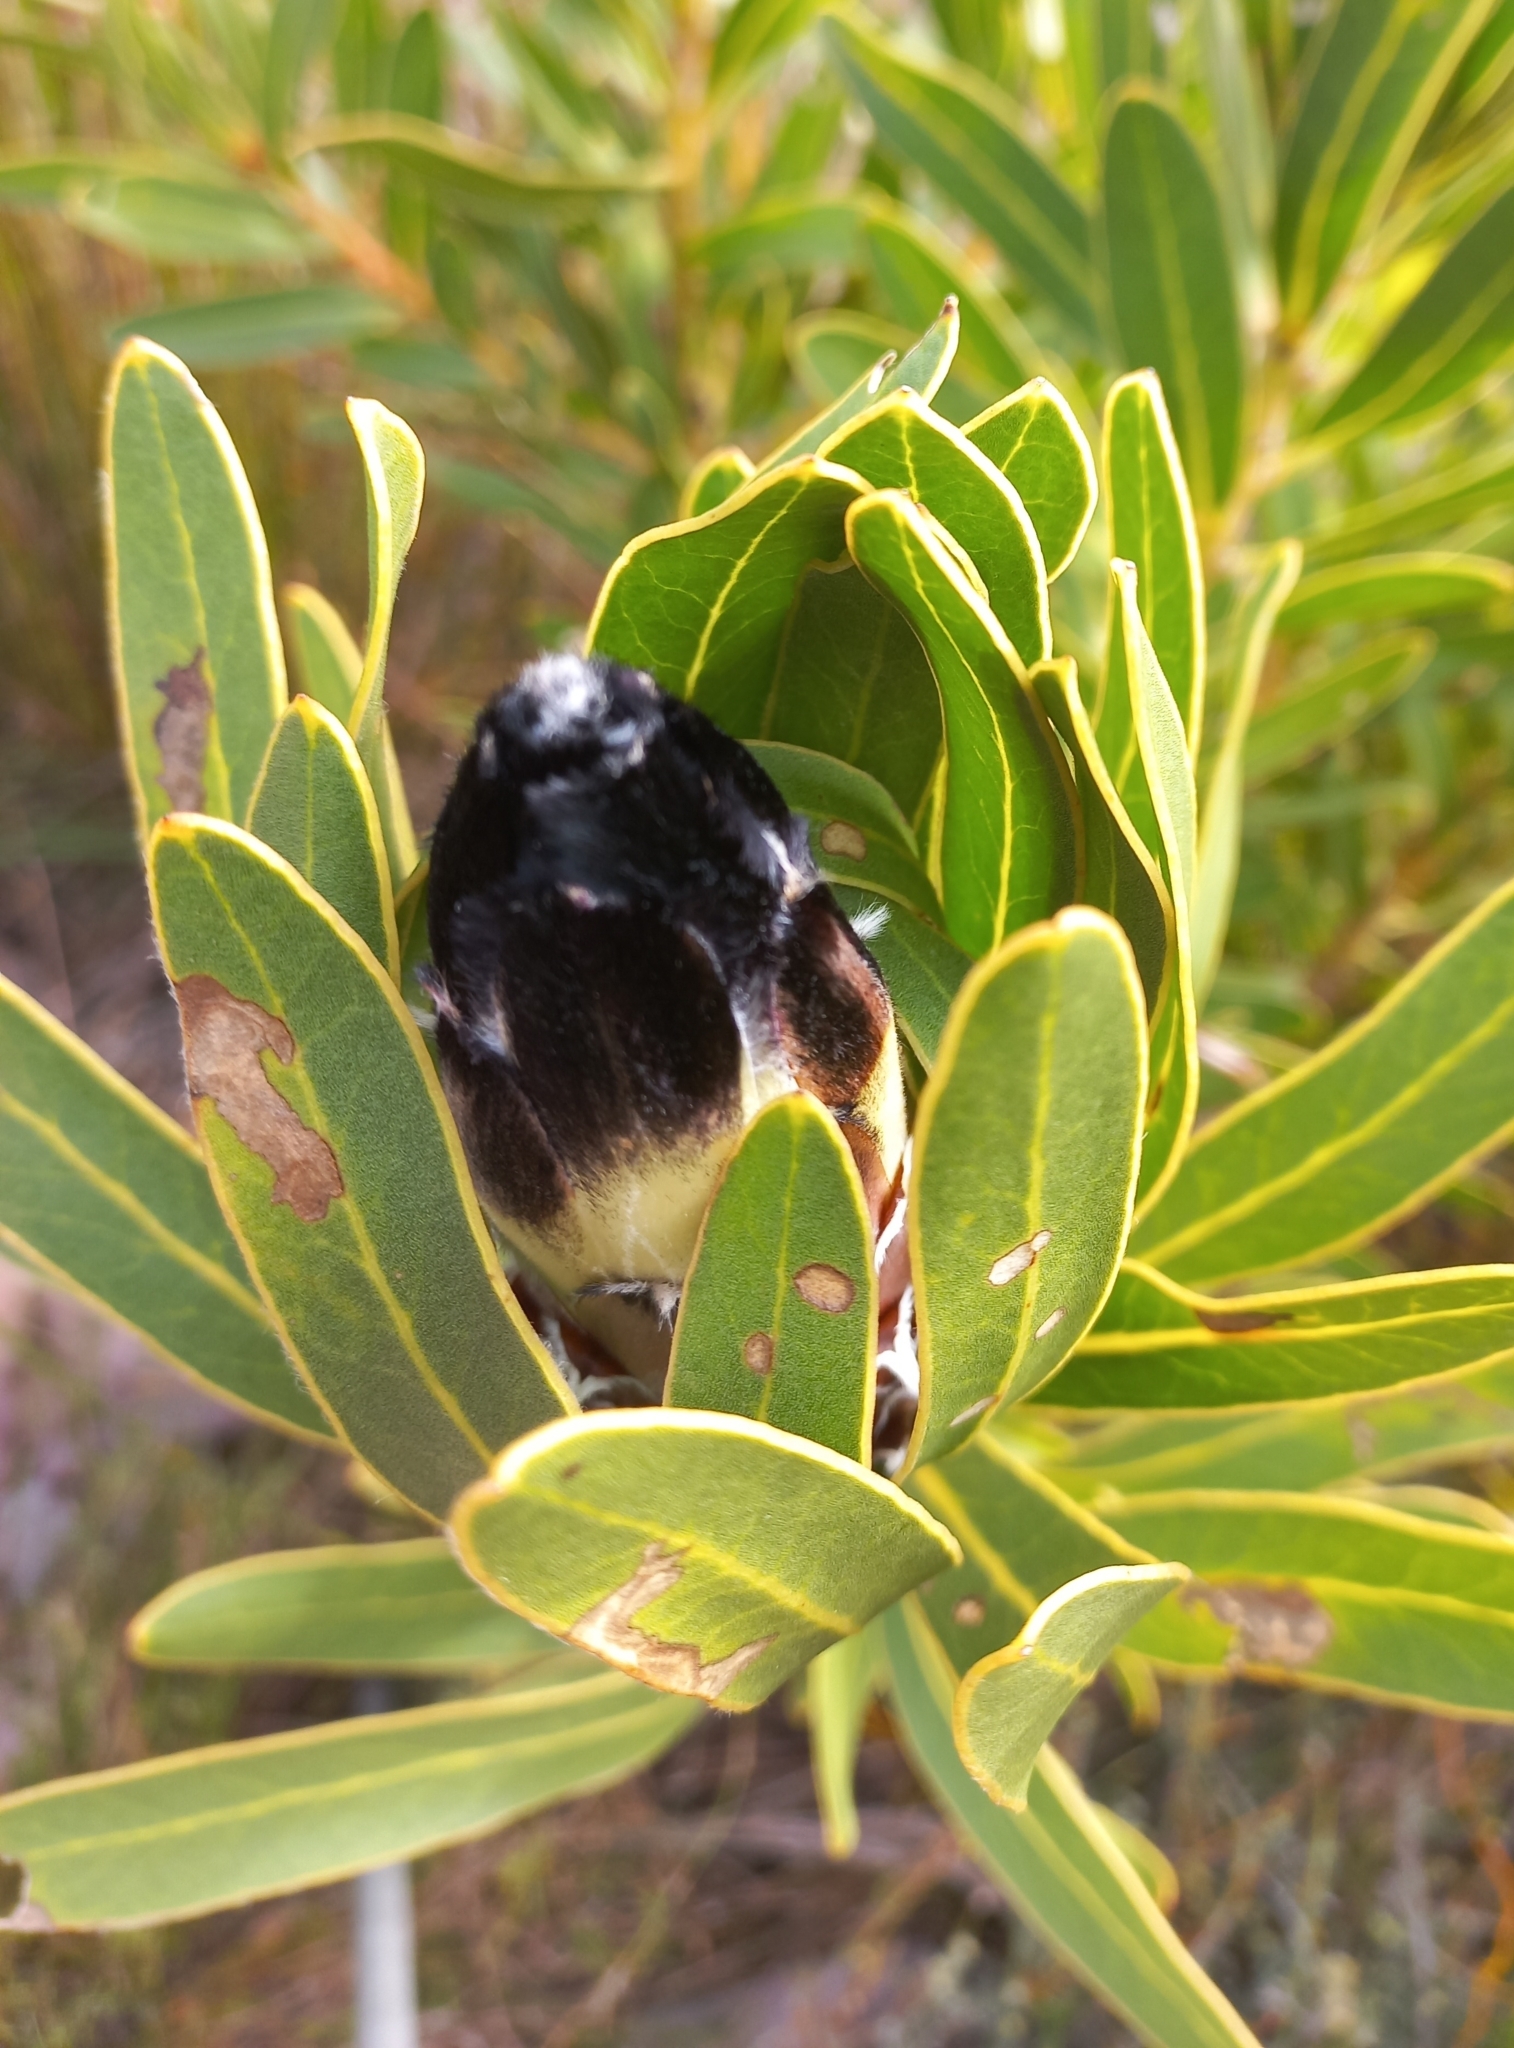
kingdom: Plantae
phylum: Tracheophyta
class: Magnoliopsida
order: Proteales
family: Proteaceae
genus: Protea
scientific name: Protea lepidocarpodendron
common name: Black-bearded protea
